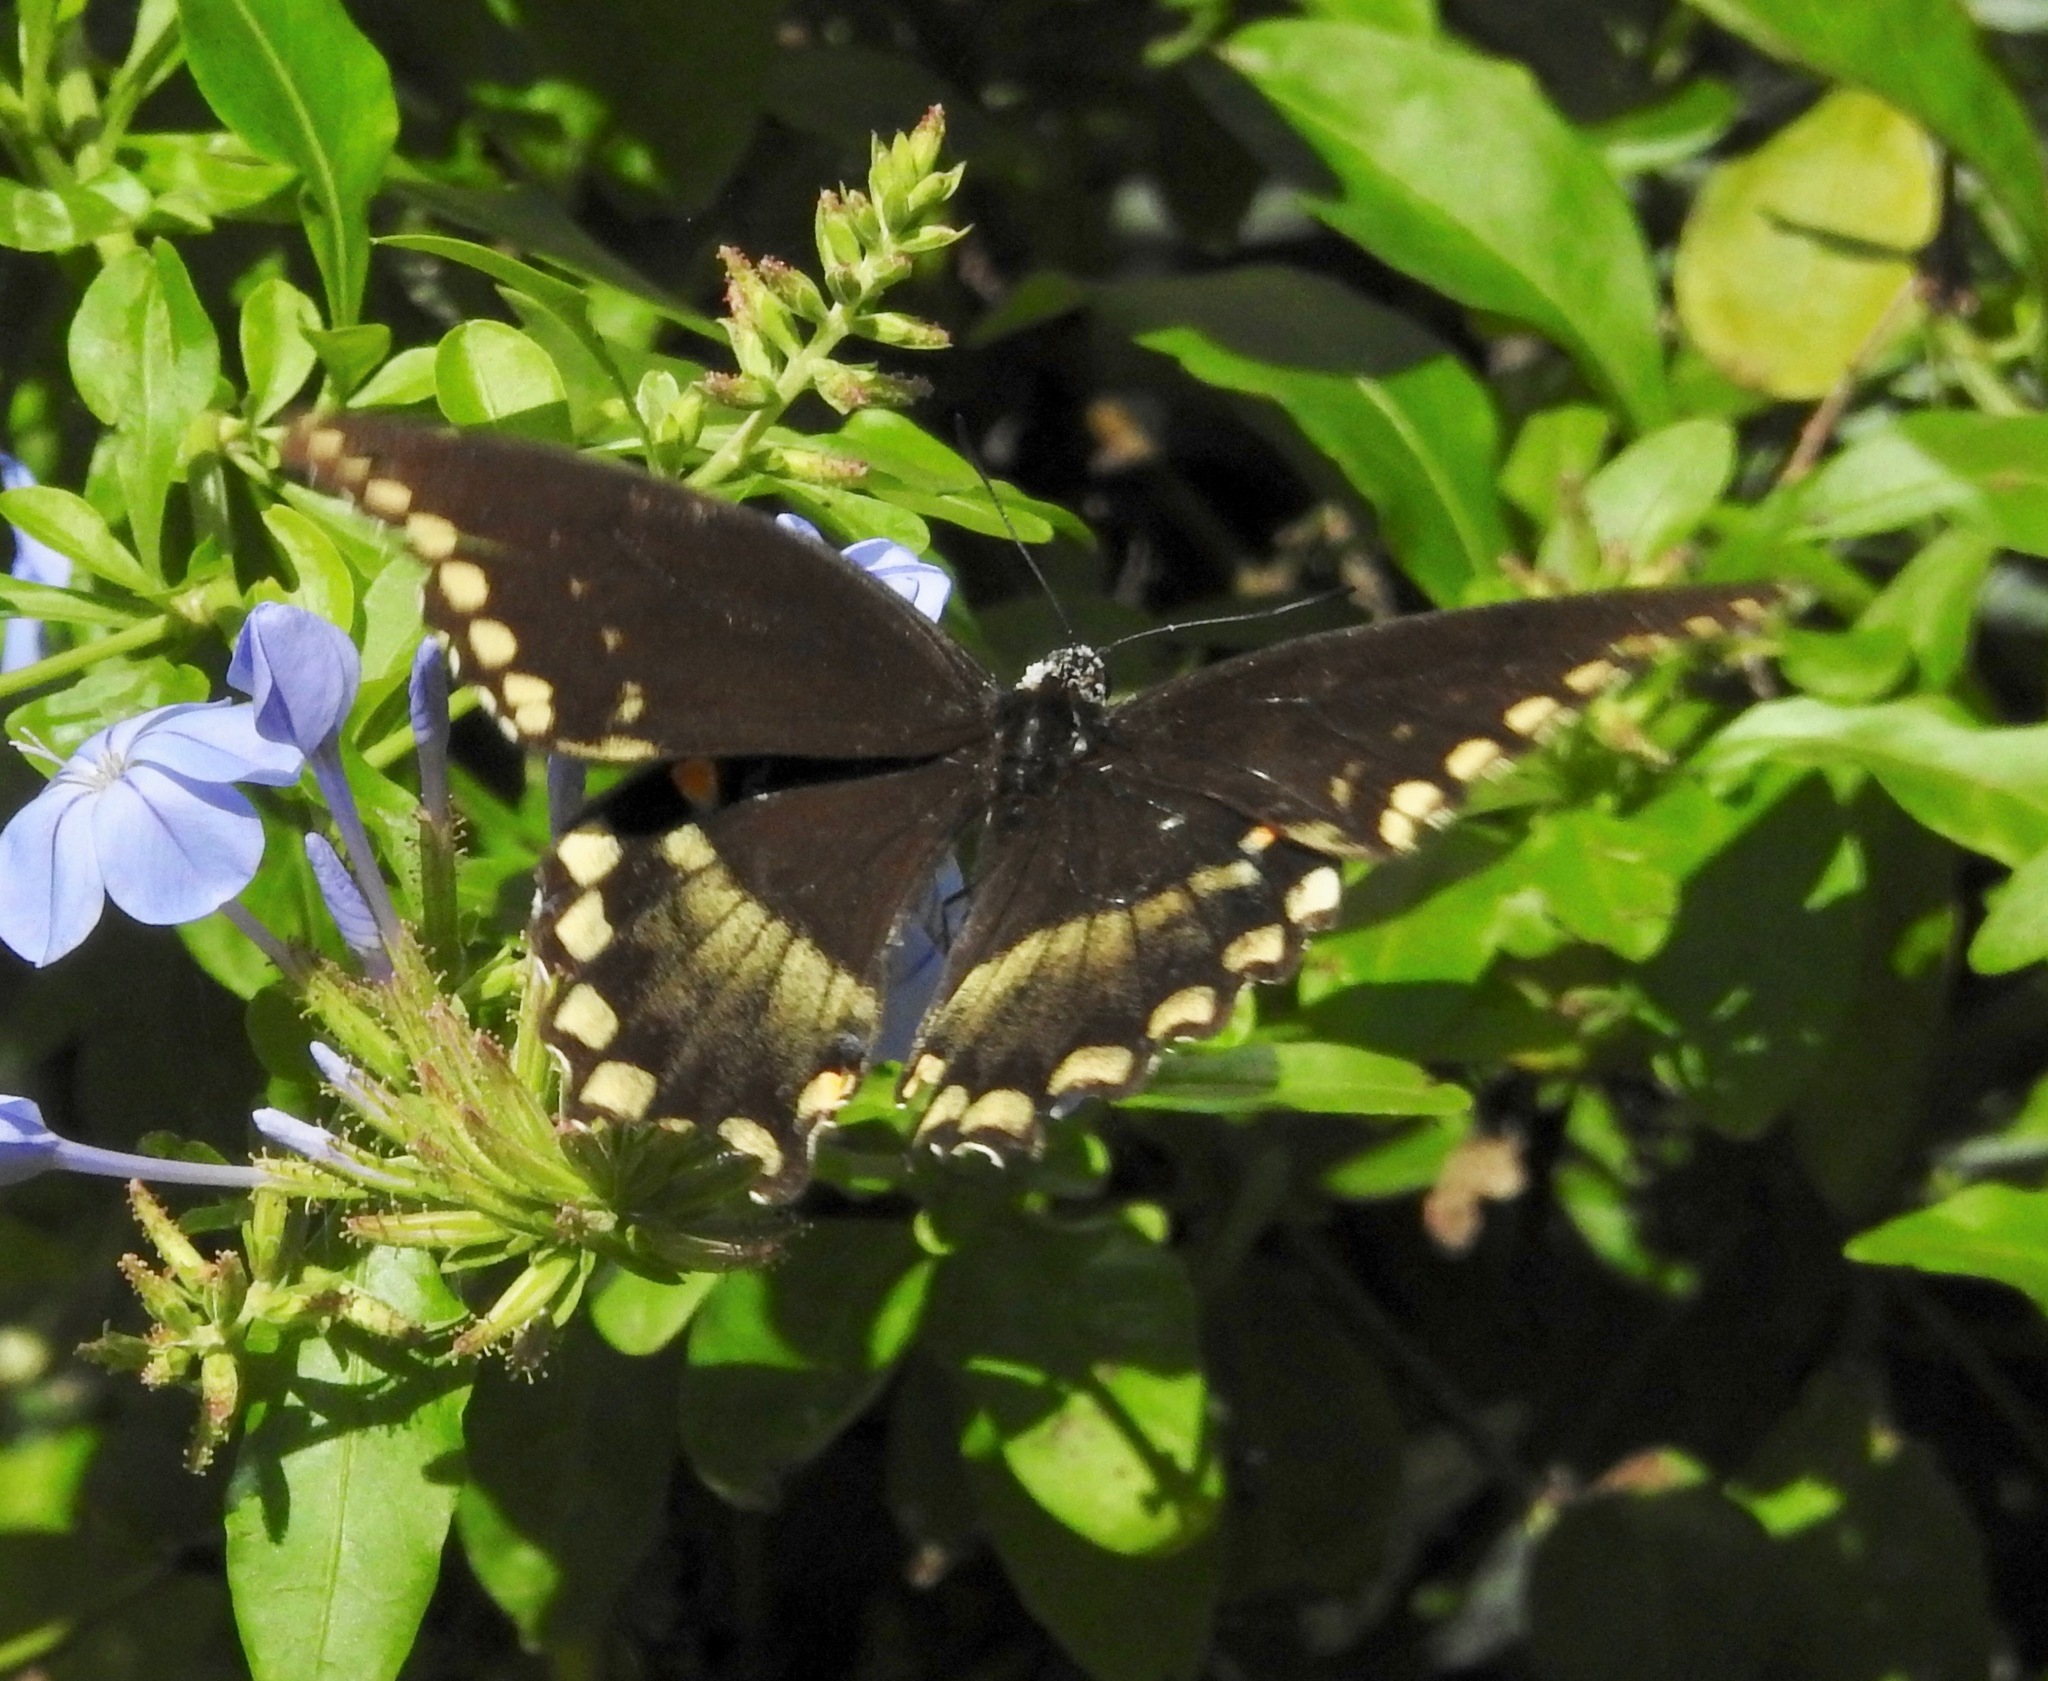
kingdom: Animalia
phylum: Arthropoda
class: Insecta
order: Lepidoptera
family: Papilionidae
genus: Papilio
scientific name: Papilio troilus
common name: Spicebush swallowtail
